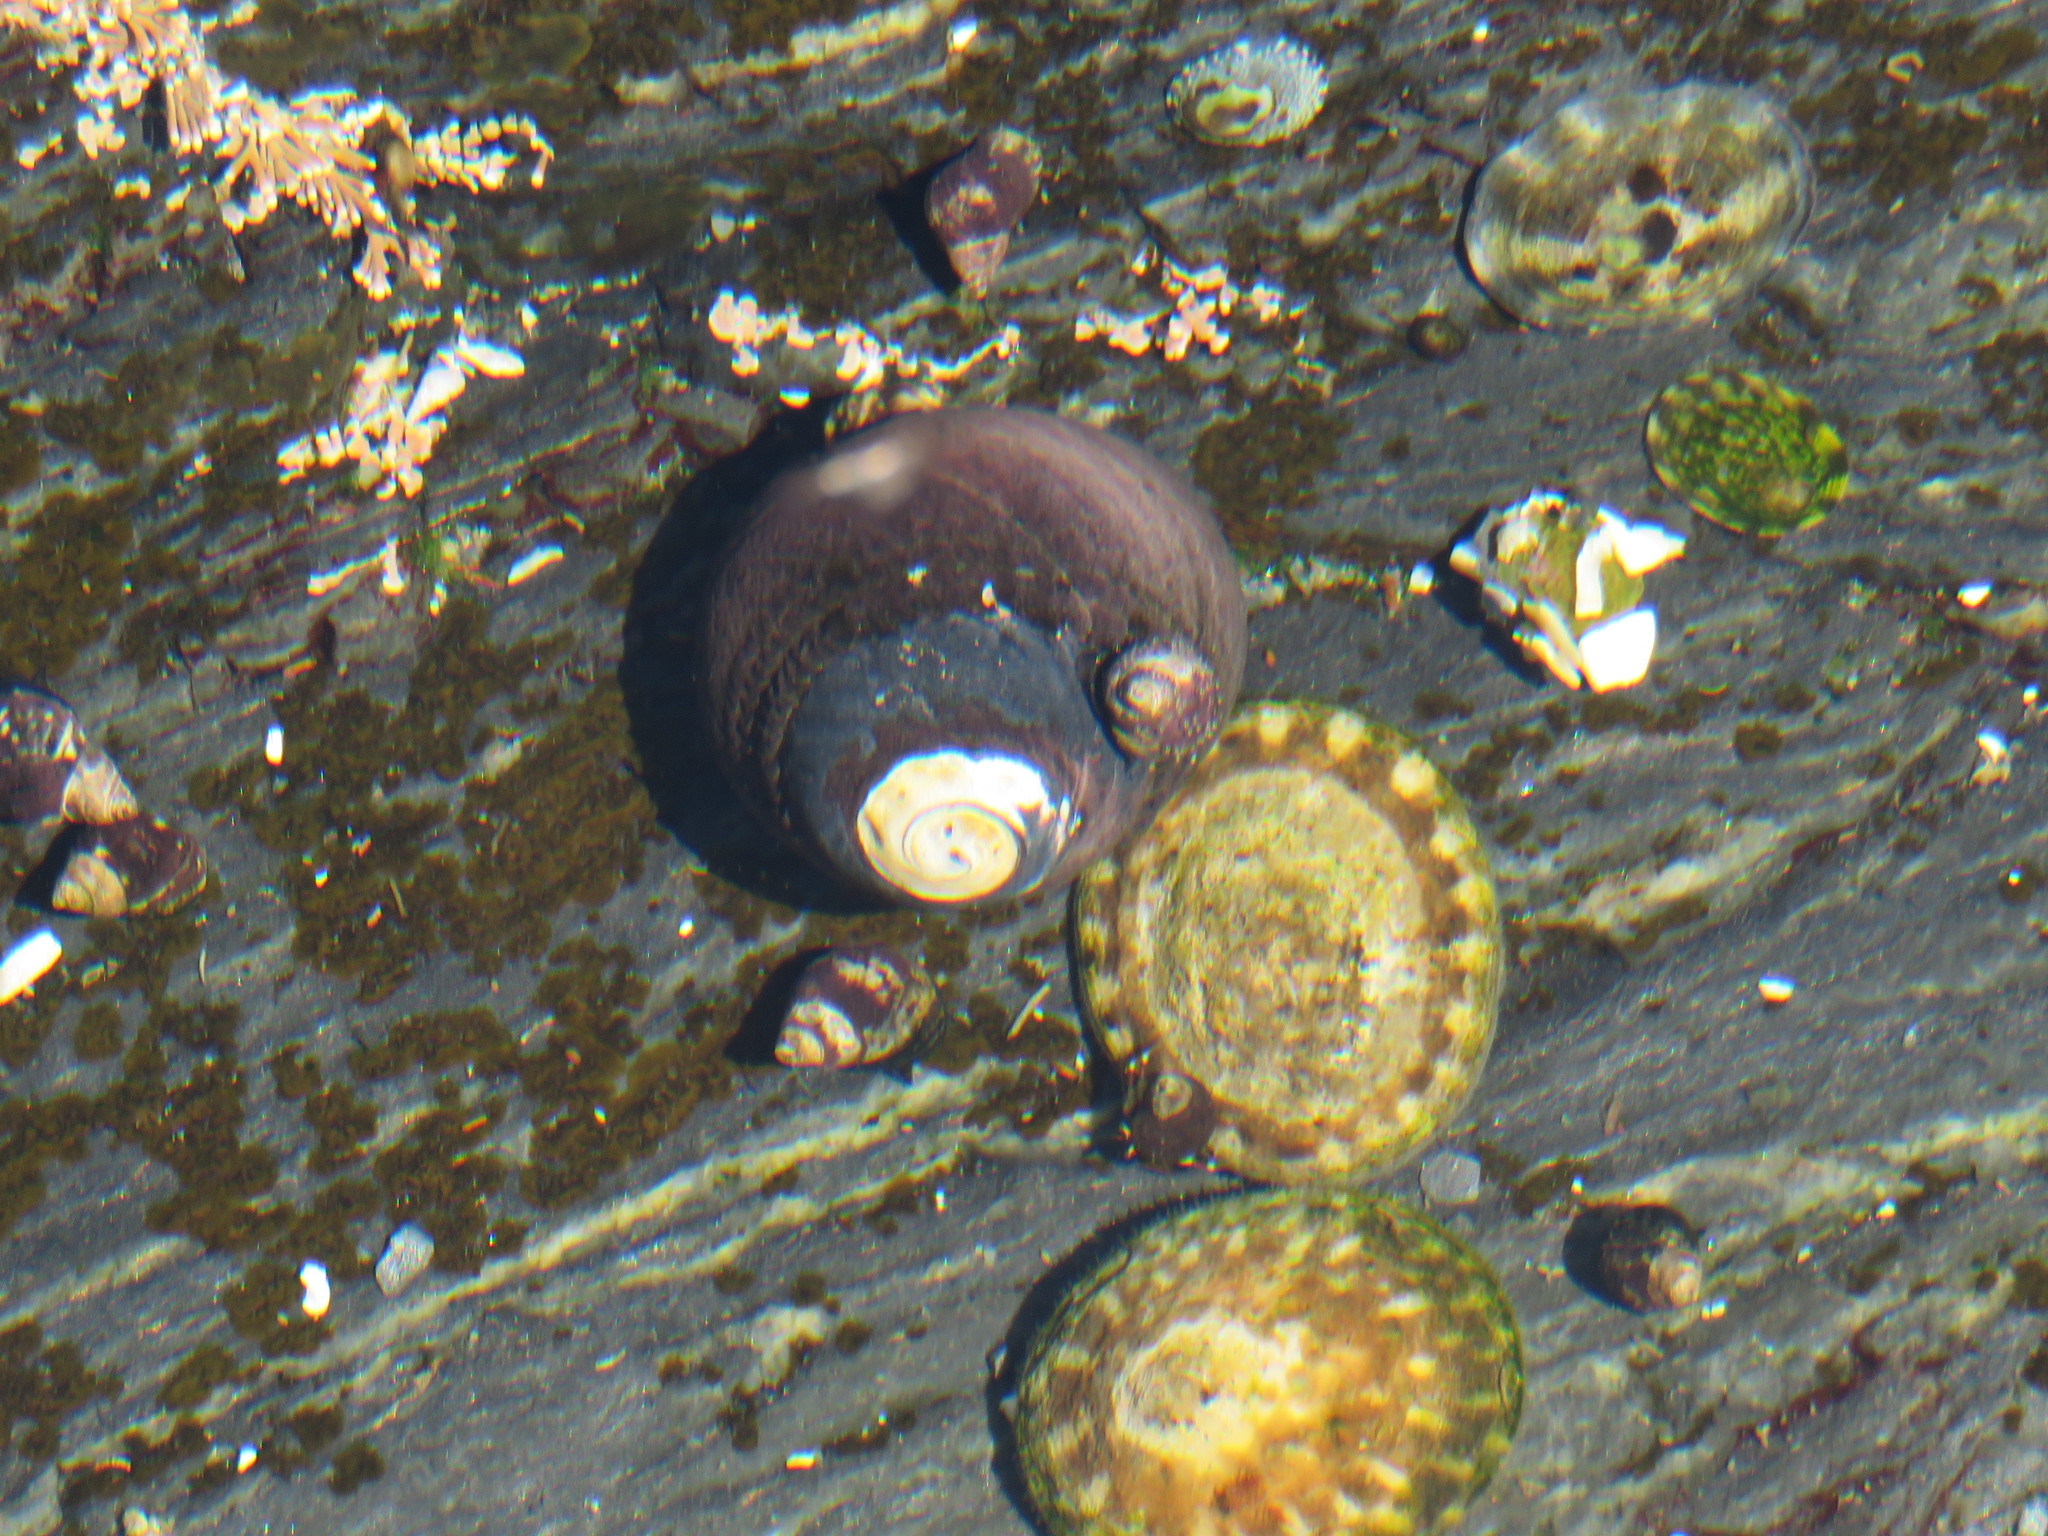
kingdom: Animalia
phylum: Mollusca
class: Gastropoda
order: Trochida
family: Tegulidae
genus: Tegula
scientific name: Tegula funebralis
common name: Black tegula
